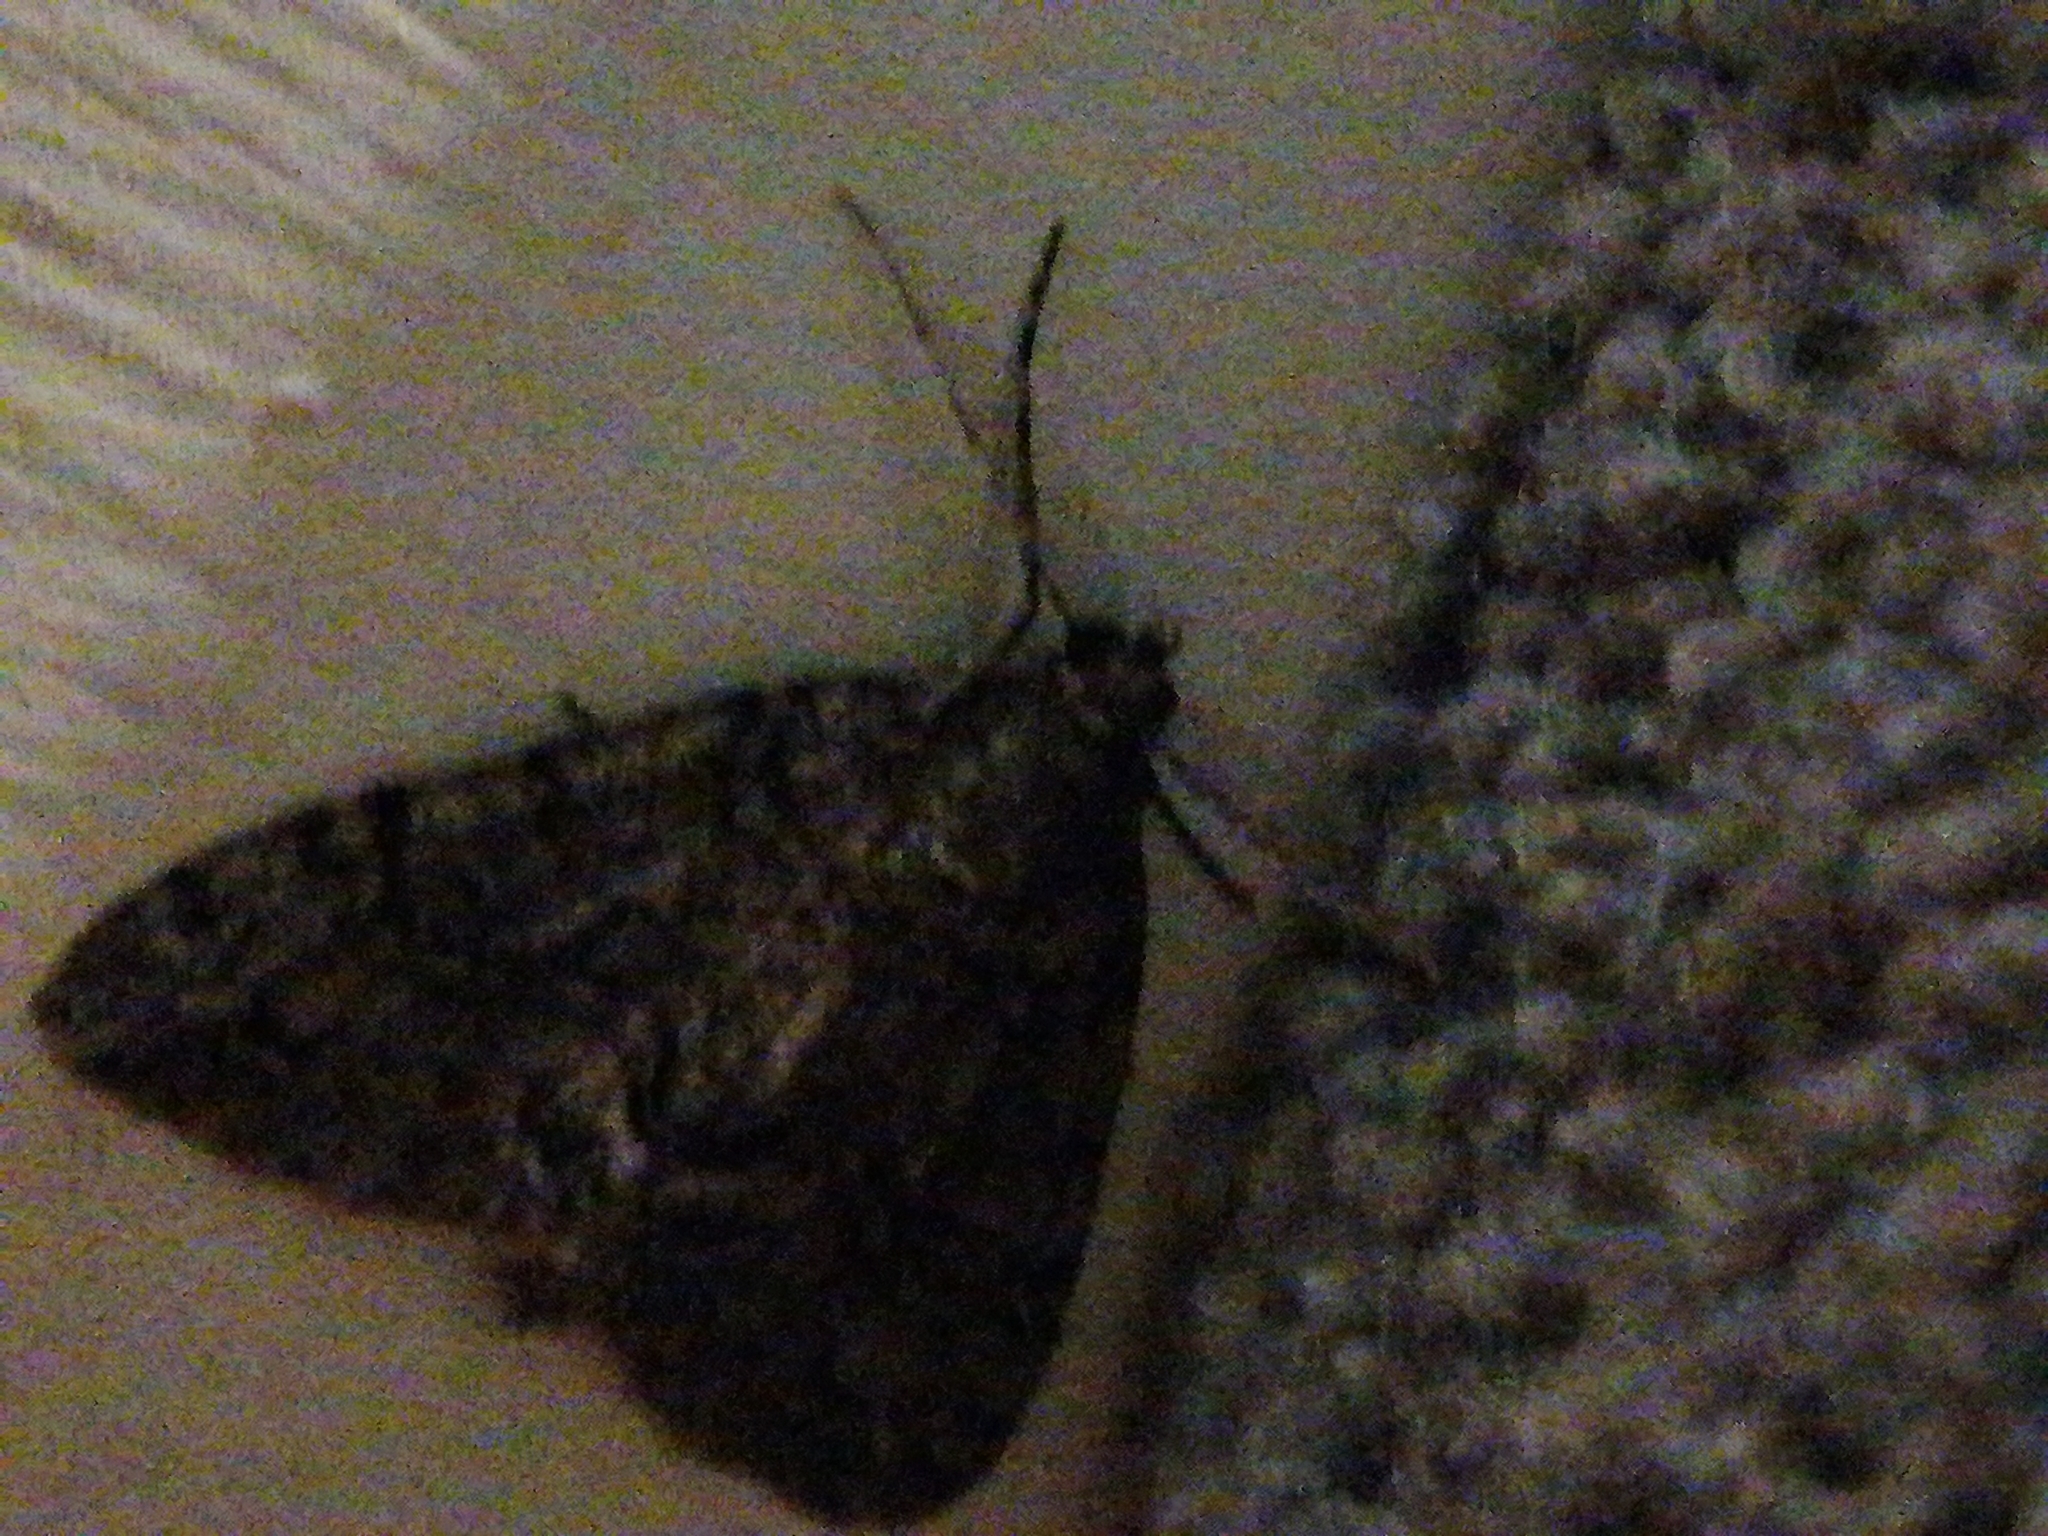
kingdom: Animalia
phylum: Arthropoda
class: Insecta
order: Lepidoptera
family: Geometridae
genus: Pseudocoremia
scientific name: Pseudocoremia suavis
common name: Common forest looper
